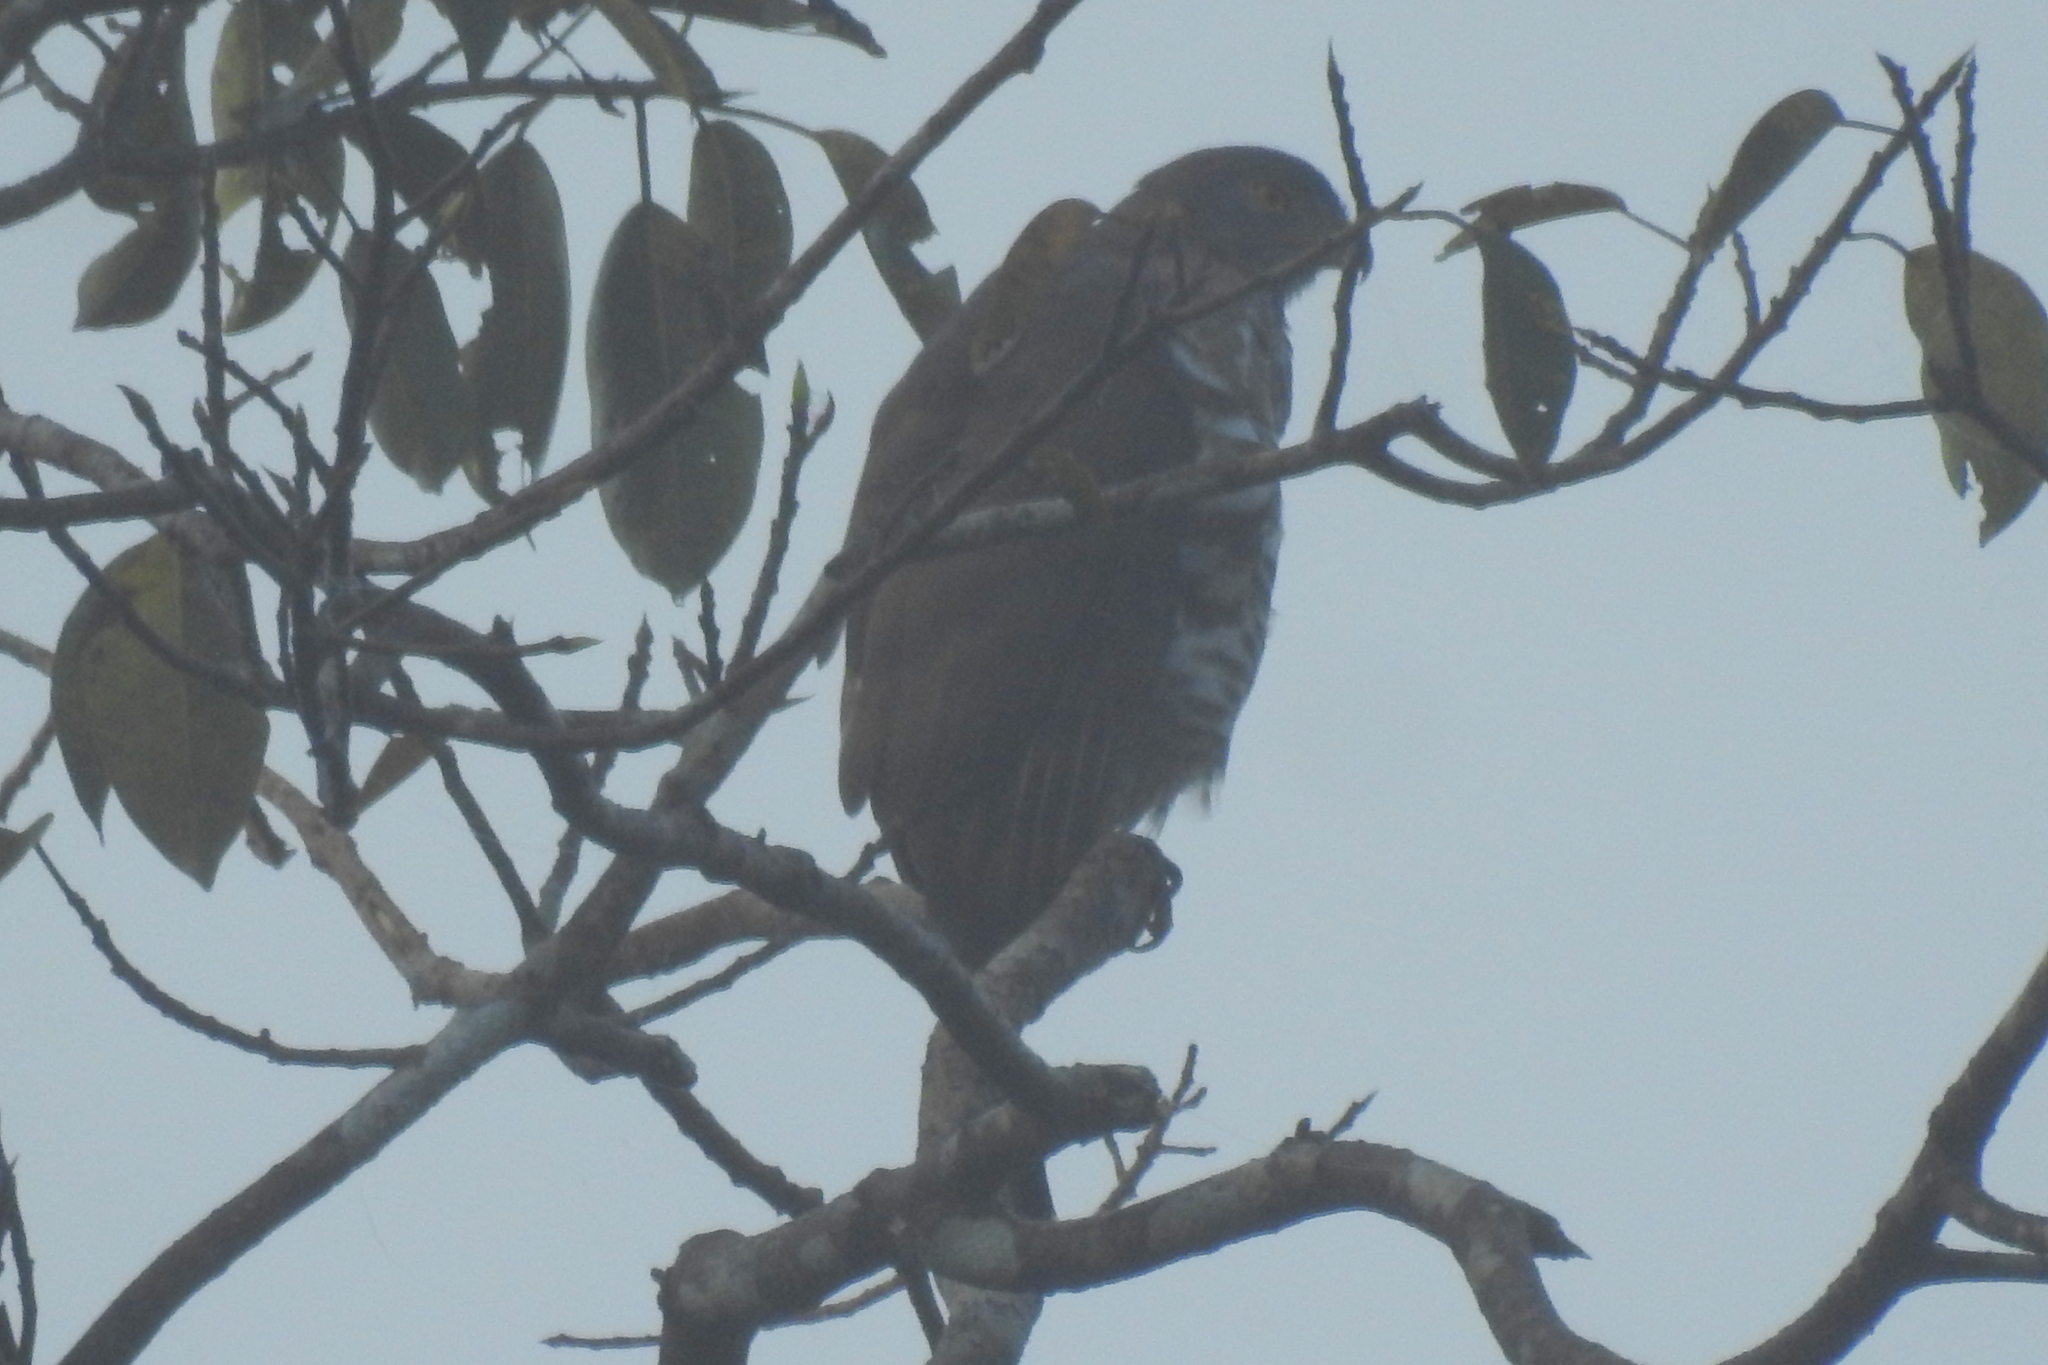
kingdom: Animalia
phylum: Chordata
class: Aves
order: Accipitriformes
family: Accipitridae
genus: Accipiter
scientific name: Accipiter trivirgatus
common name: Crested goshawk
